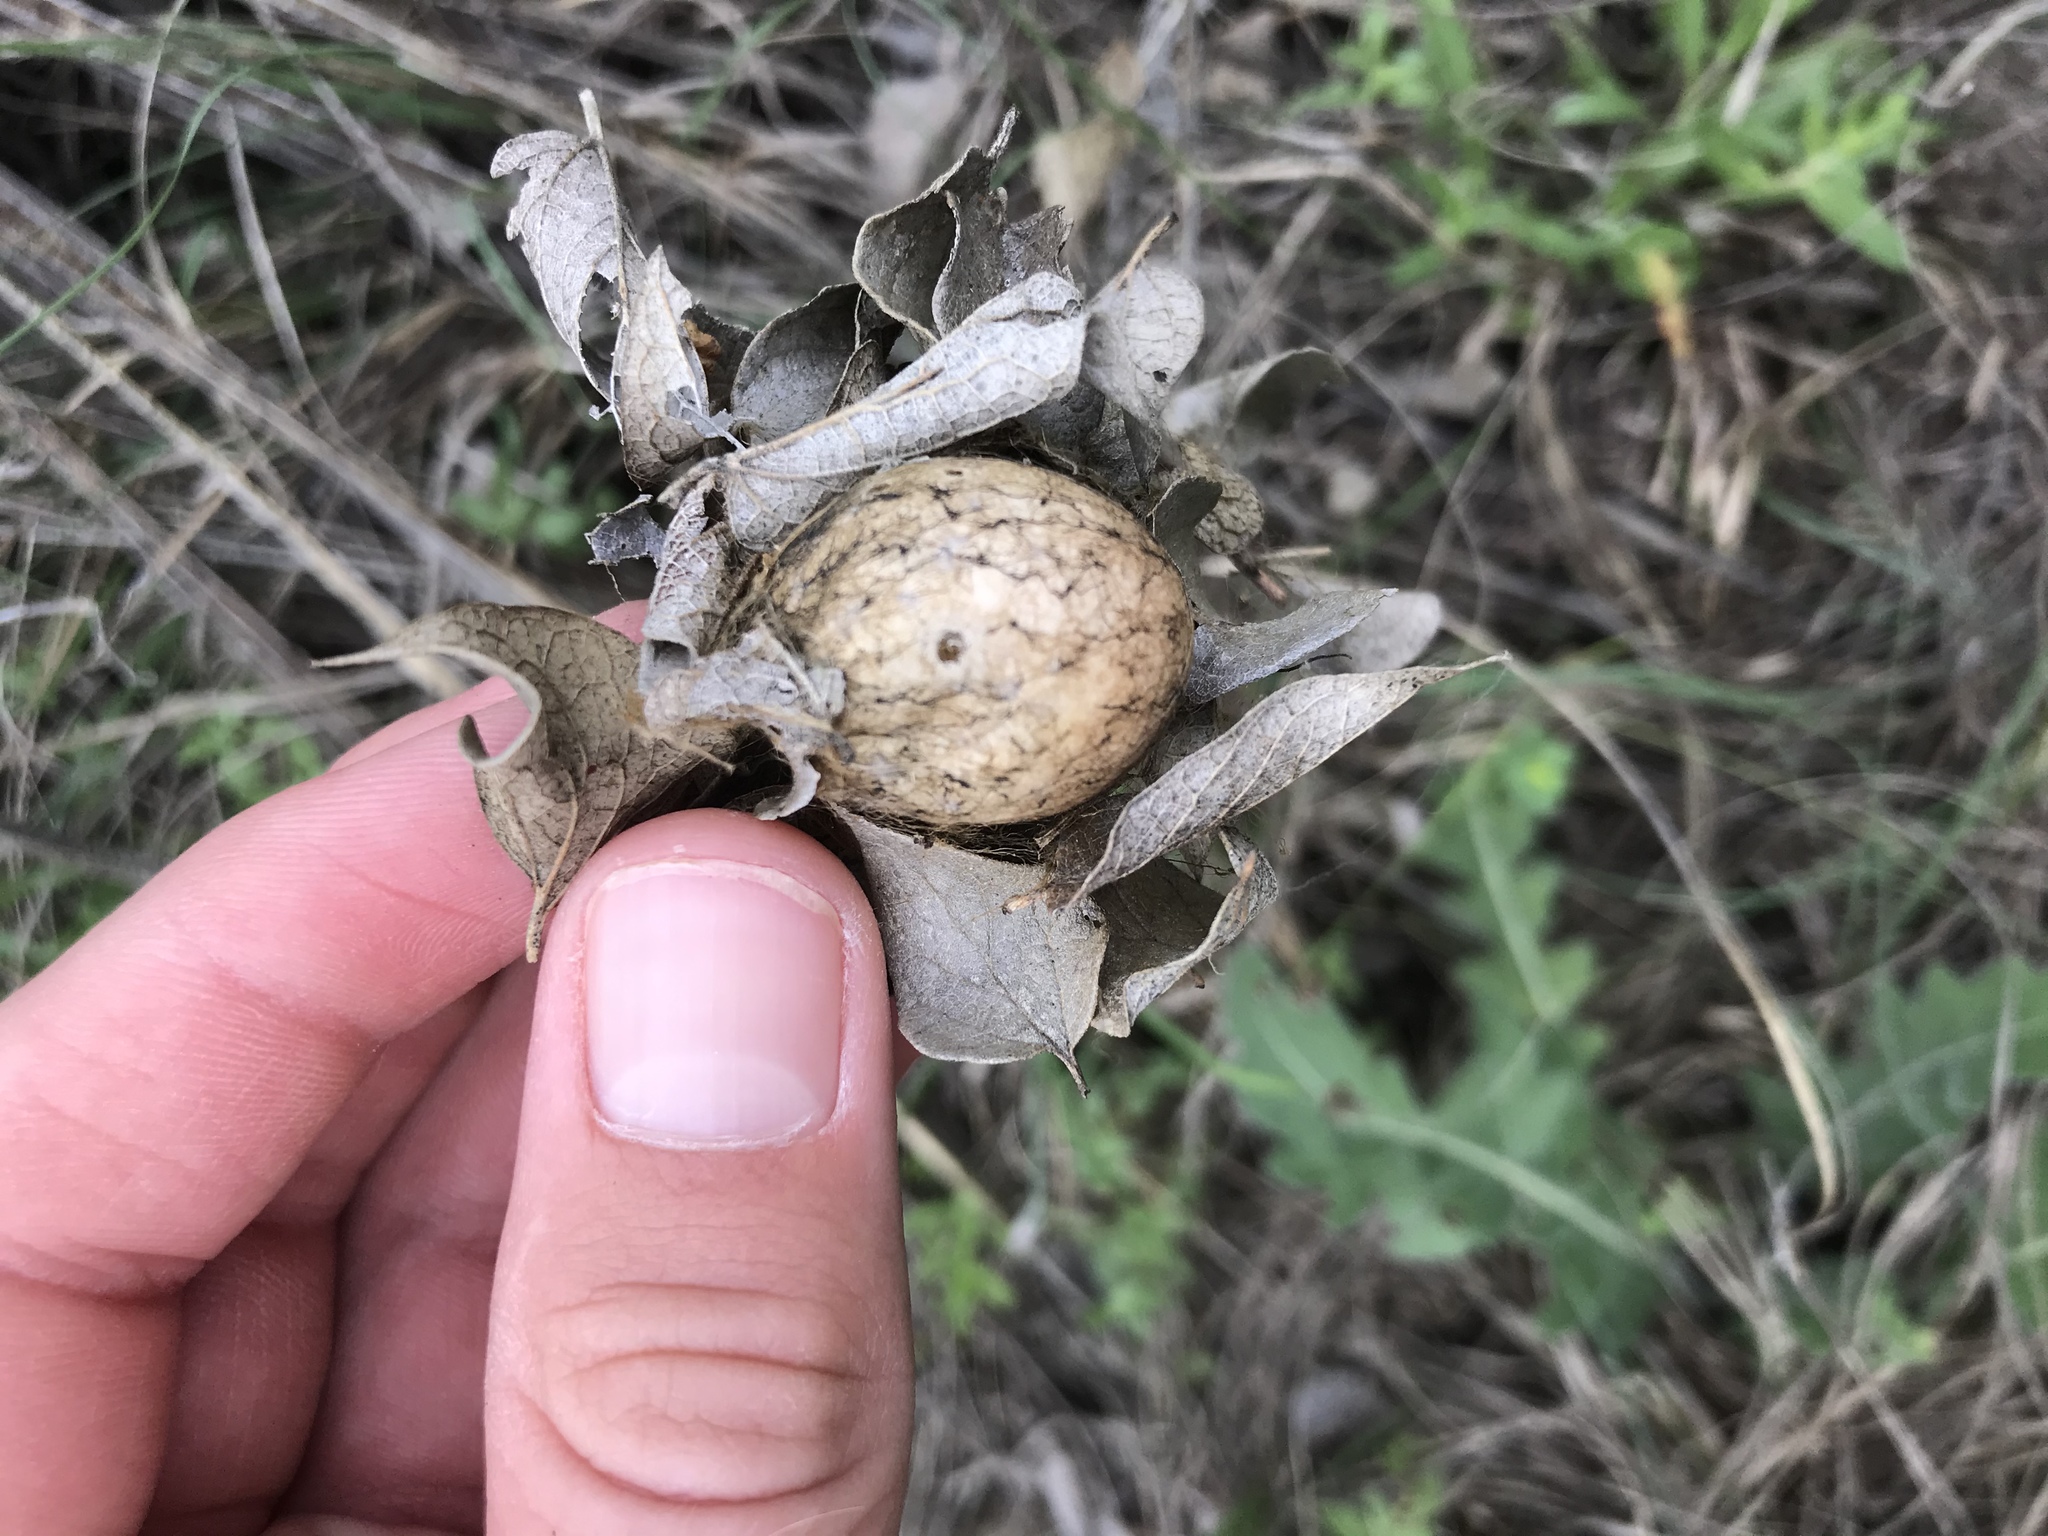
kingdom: Animalia
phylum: Arthropoda
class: Arachnida
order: Araneae
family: Araneidae
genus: Argiope
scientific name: Argiope aurantia
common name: Orb weavers
